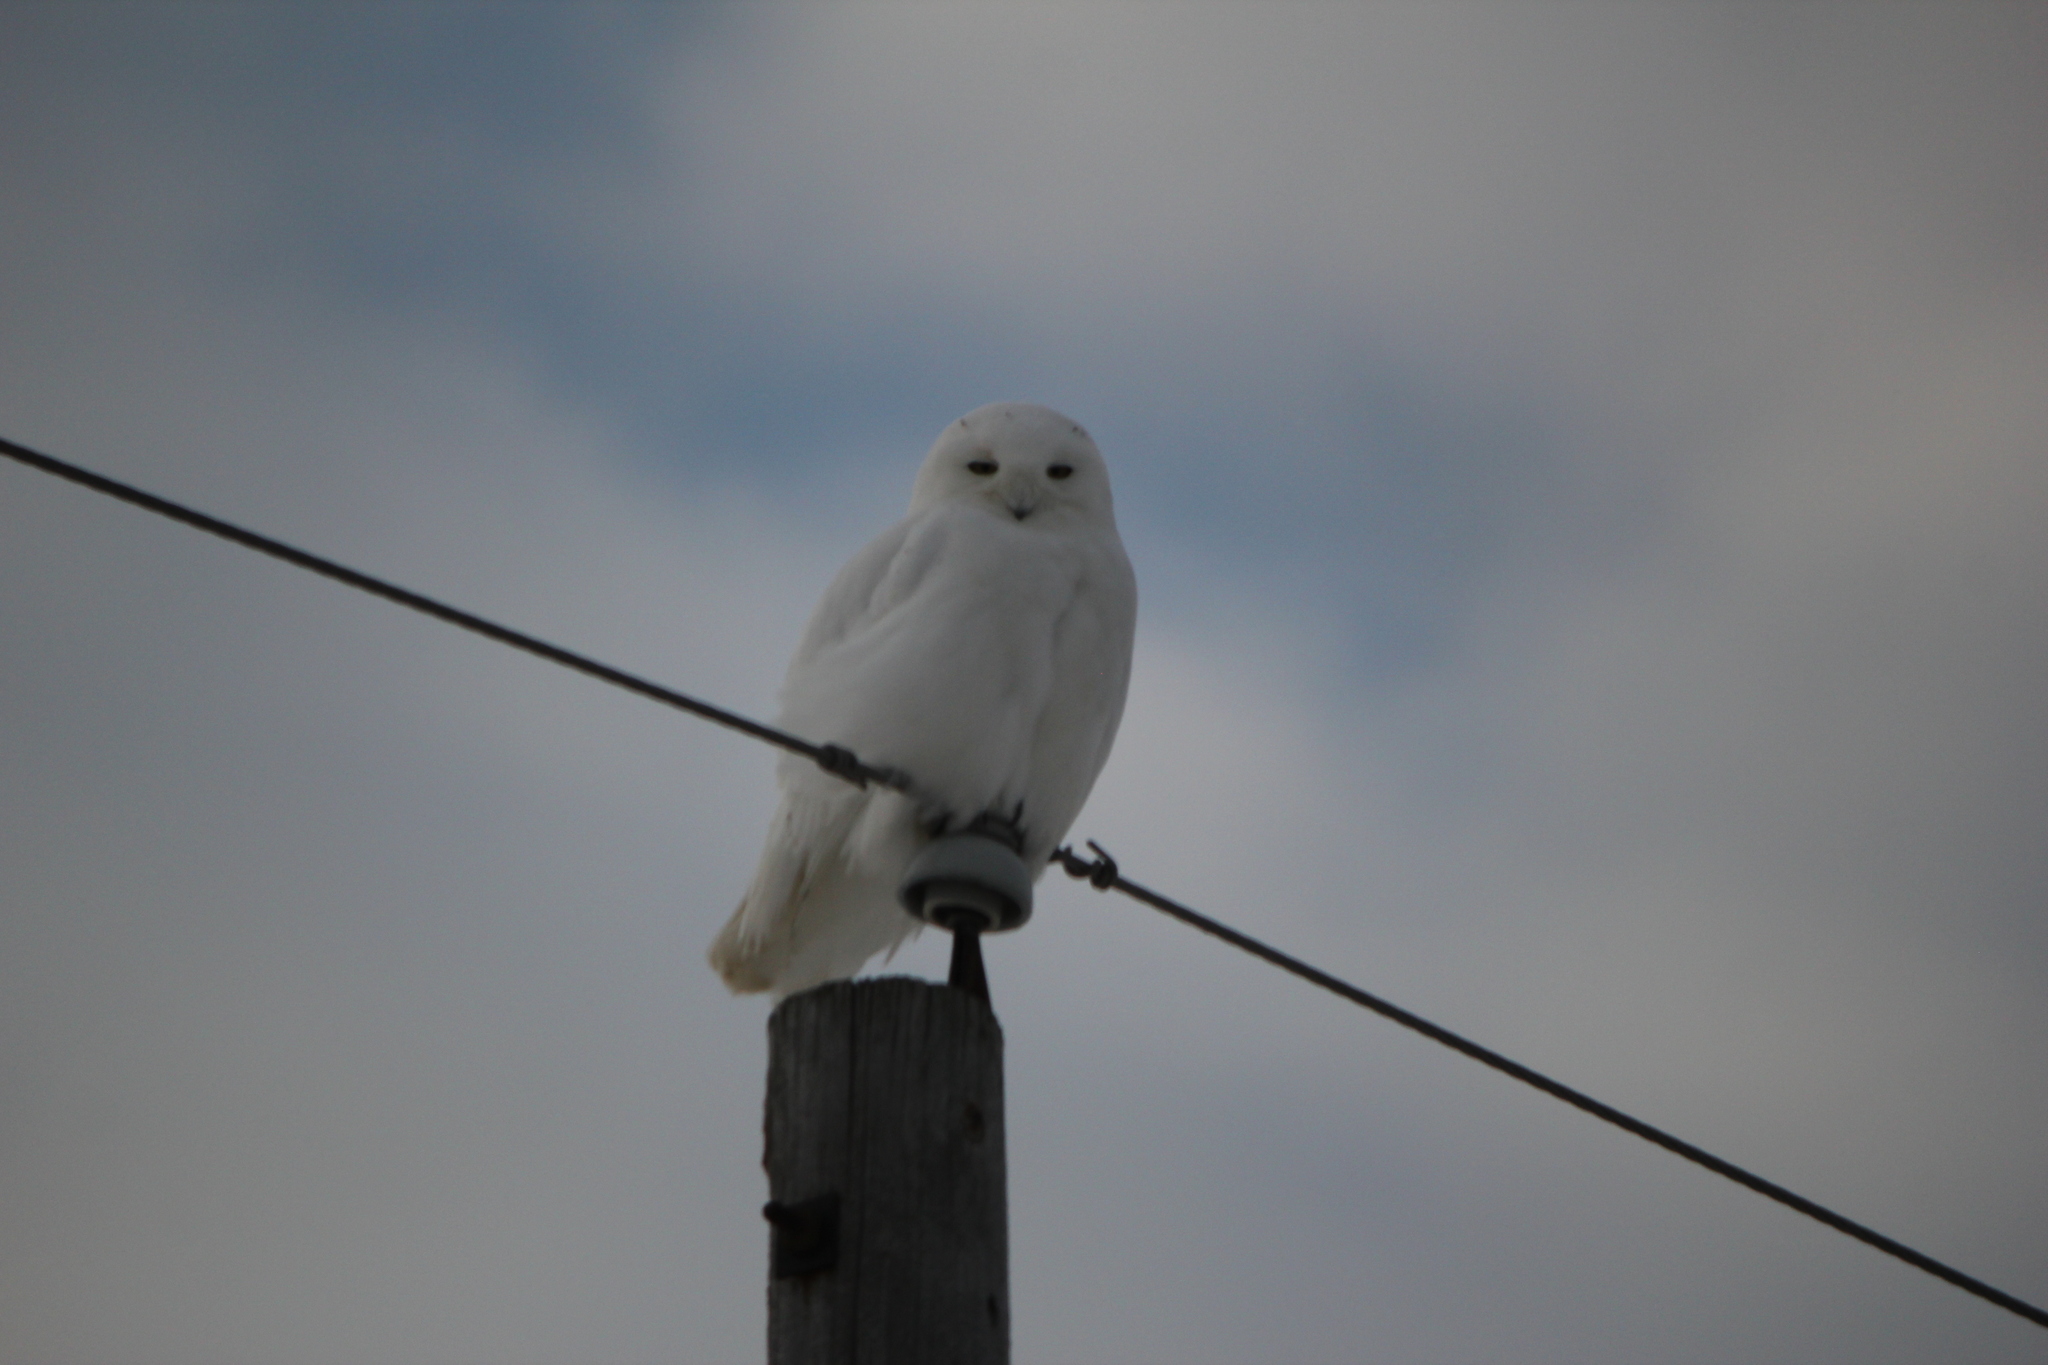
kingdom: Animalia
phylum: Chordata
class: Aves
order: Strigiformes
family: Strigidae
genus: Bubo
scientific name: Bubo scandiacus
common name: Snowy owl
